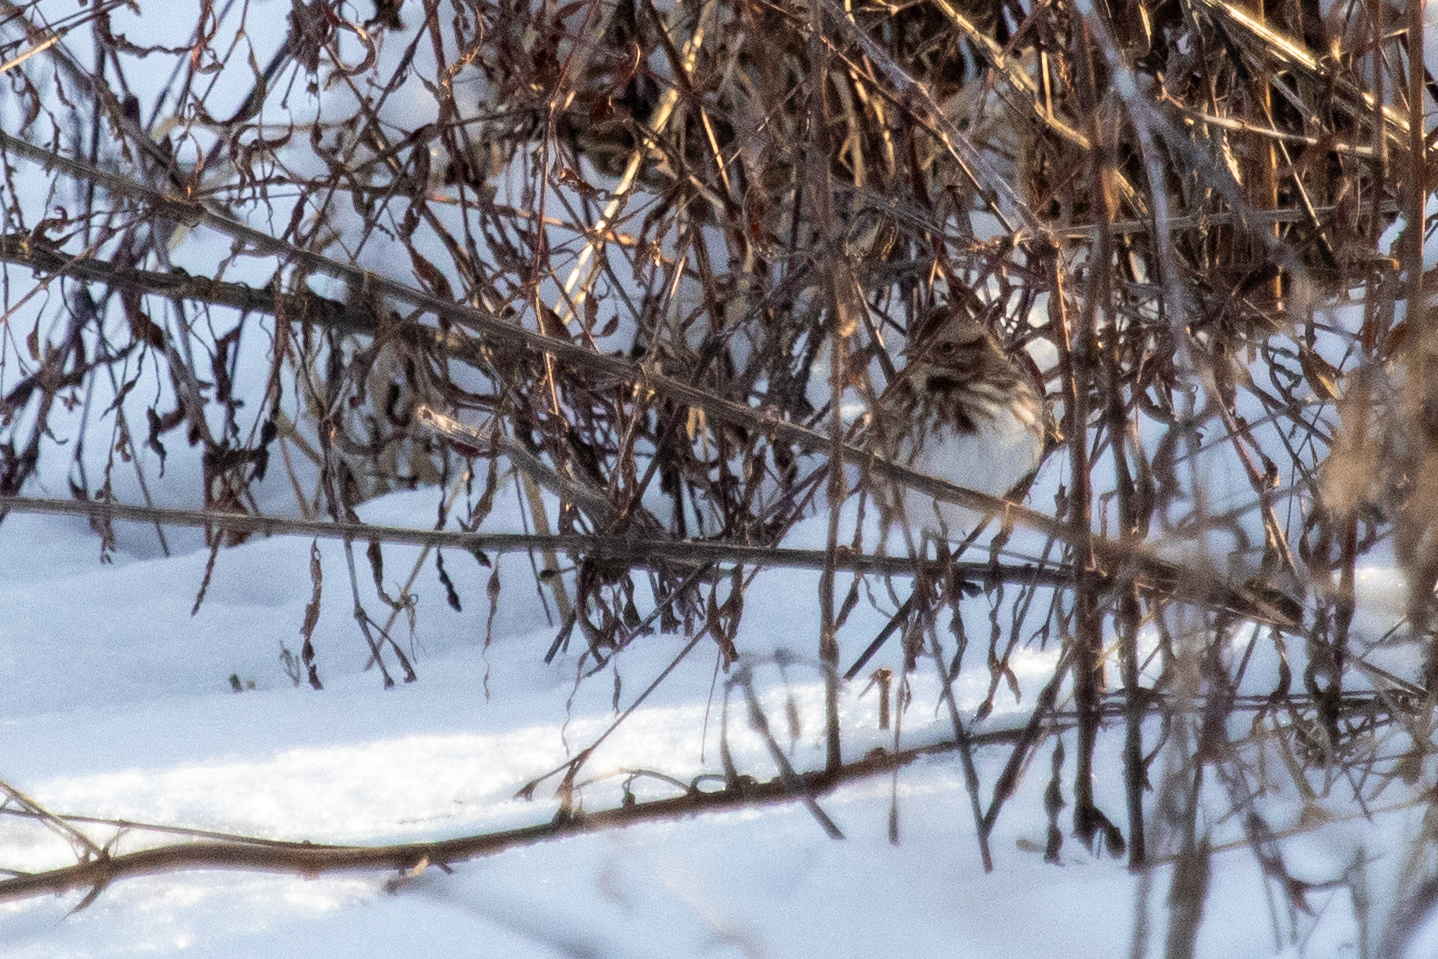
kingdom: Animalia
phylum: Chordata
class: Aves
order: Passeriformes
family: Passerellidae
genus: Melospiza
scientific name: Melospiza melodia
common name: Song sparrow
